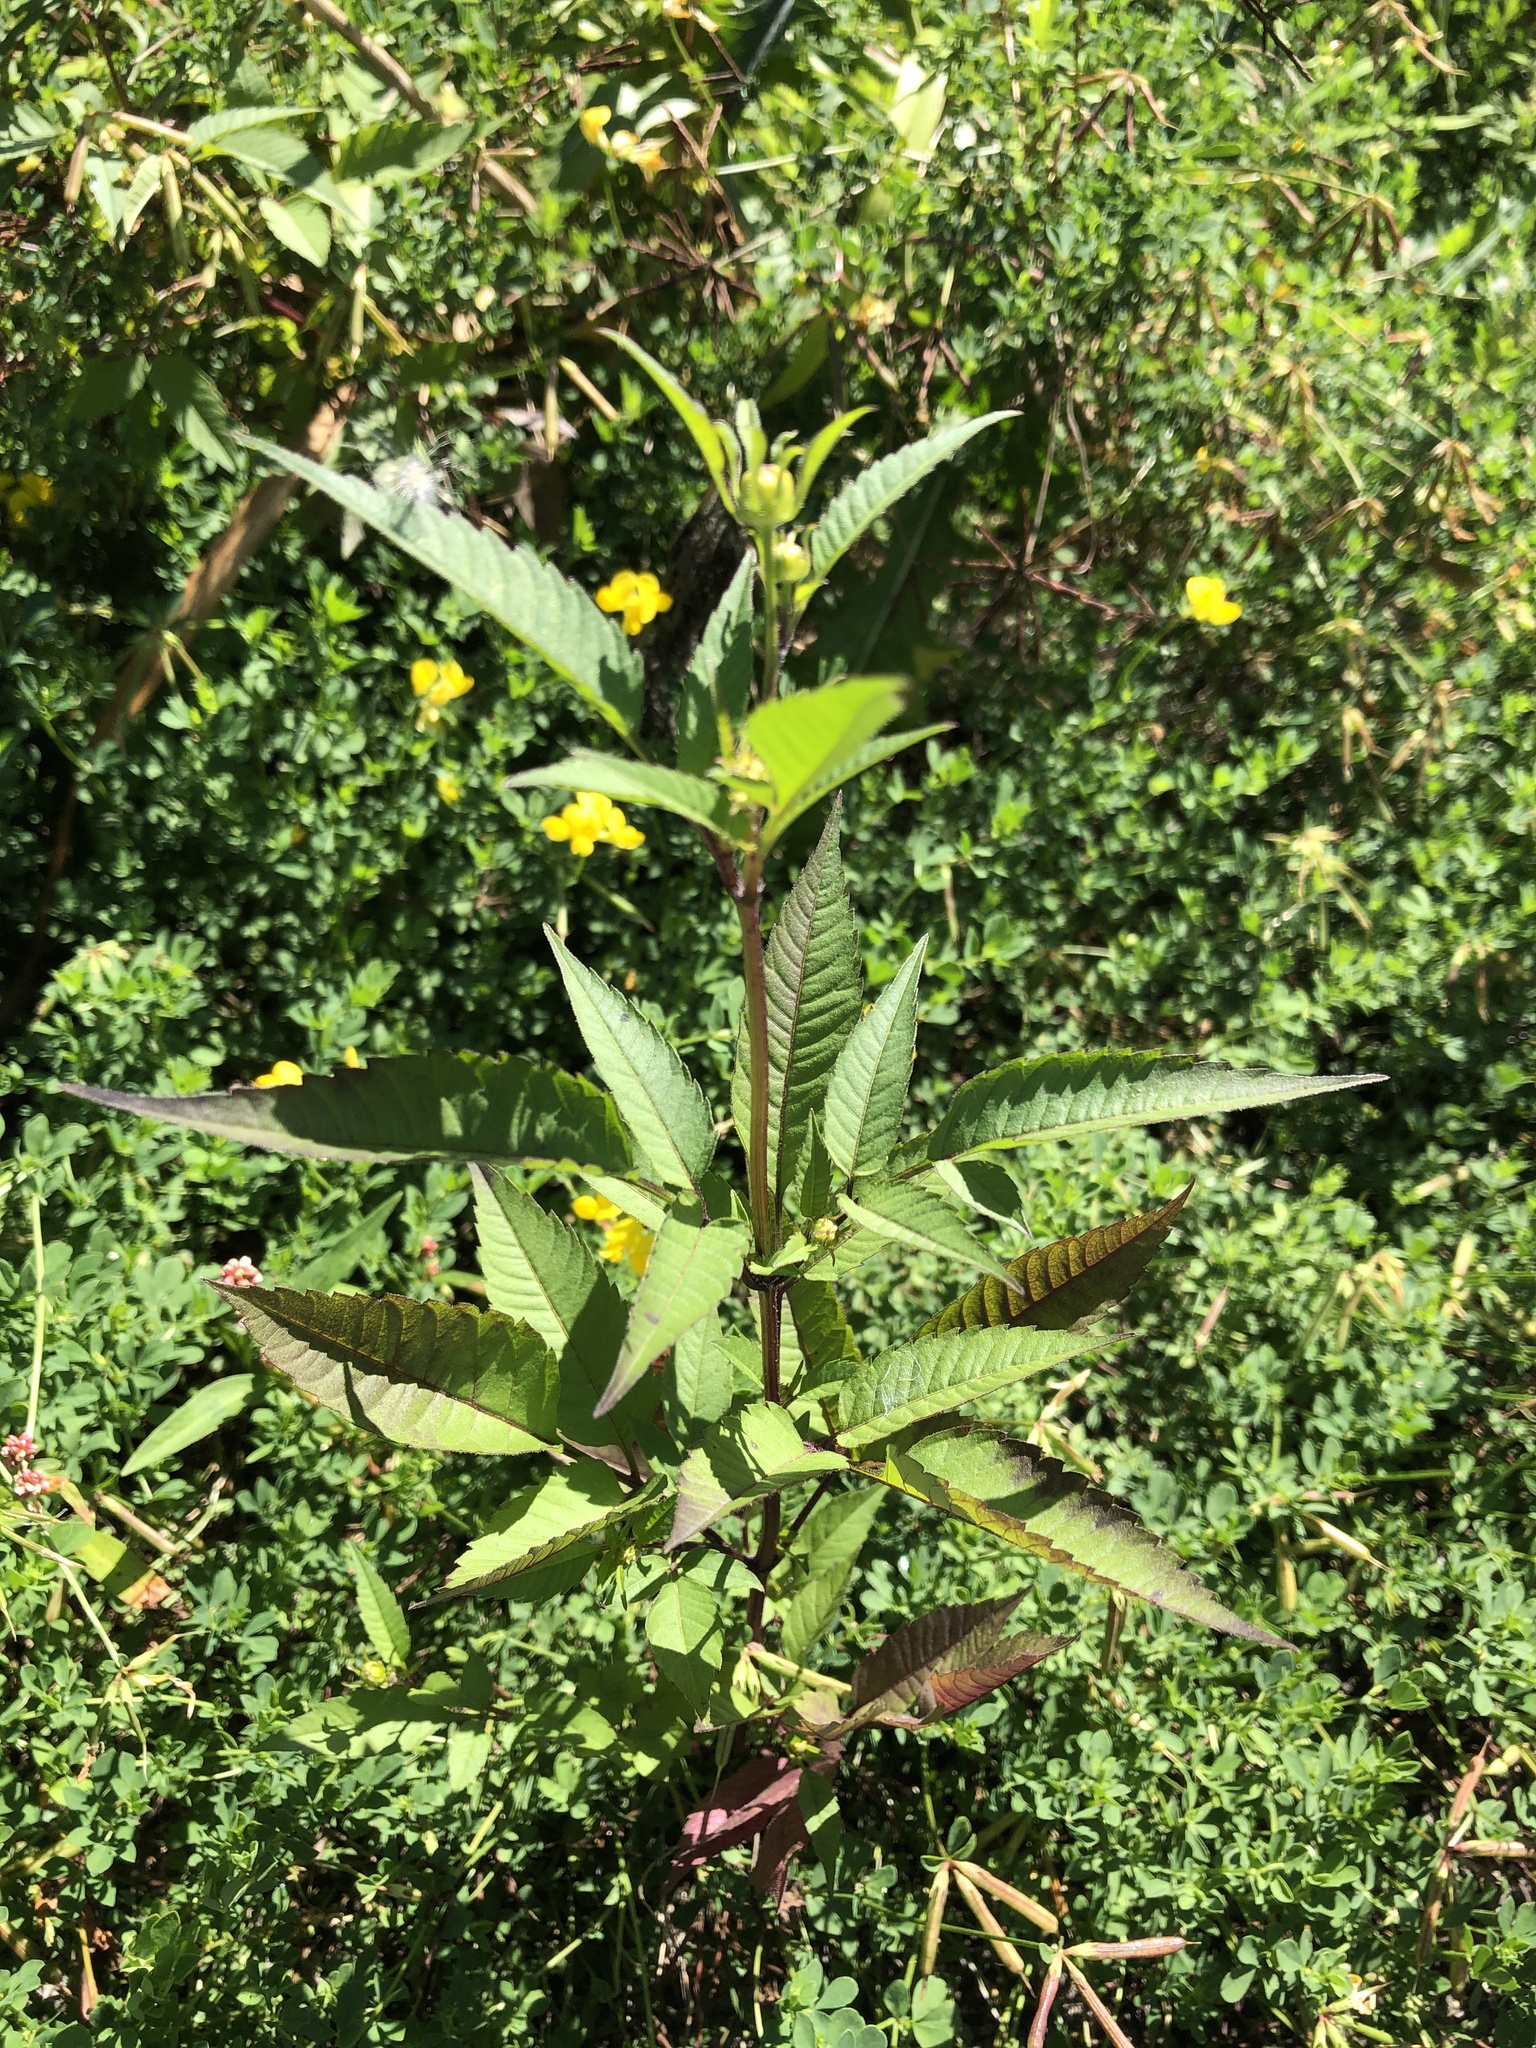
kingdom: Plantae
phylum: Tracheophyta
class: Magnoliopsida
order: Asterales
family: Asteraceae
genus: Bidens
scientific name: Bidens frondosa
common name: Beggarticks
